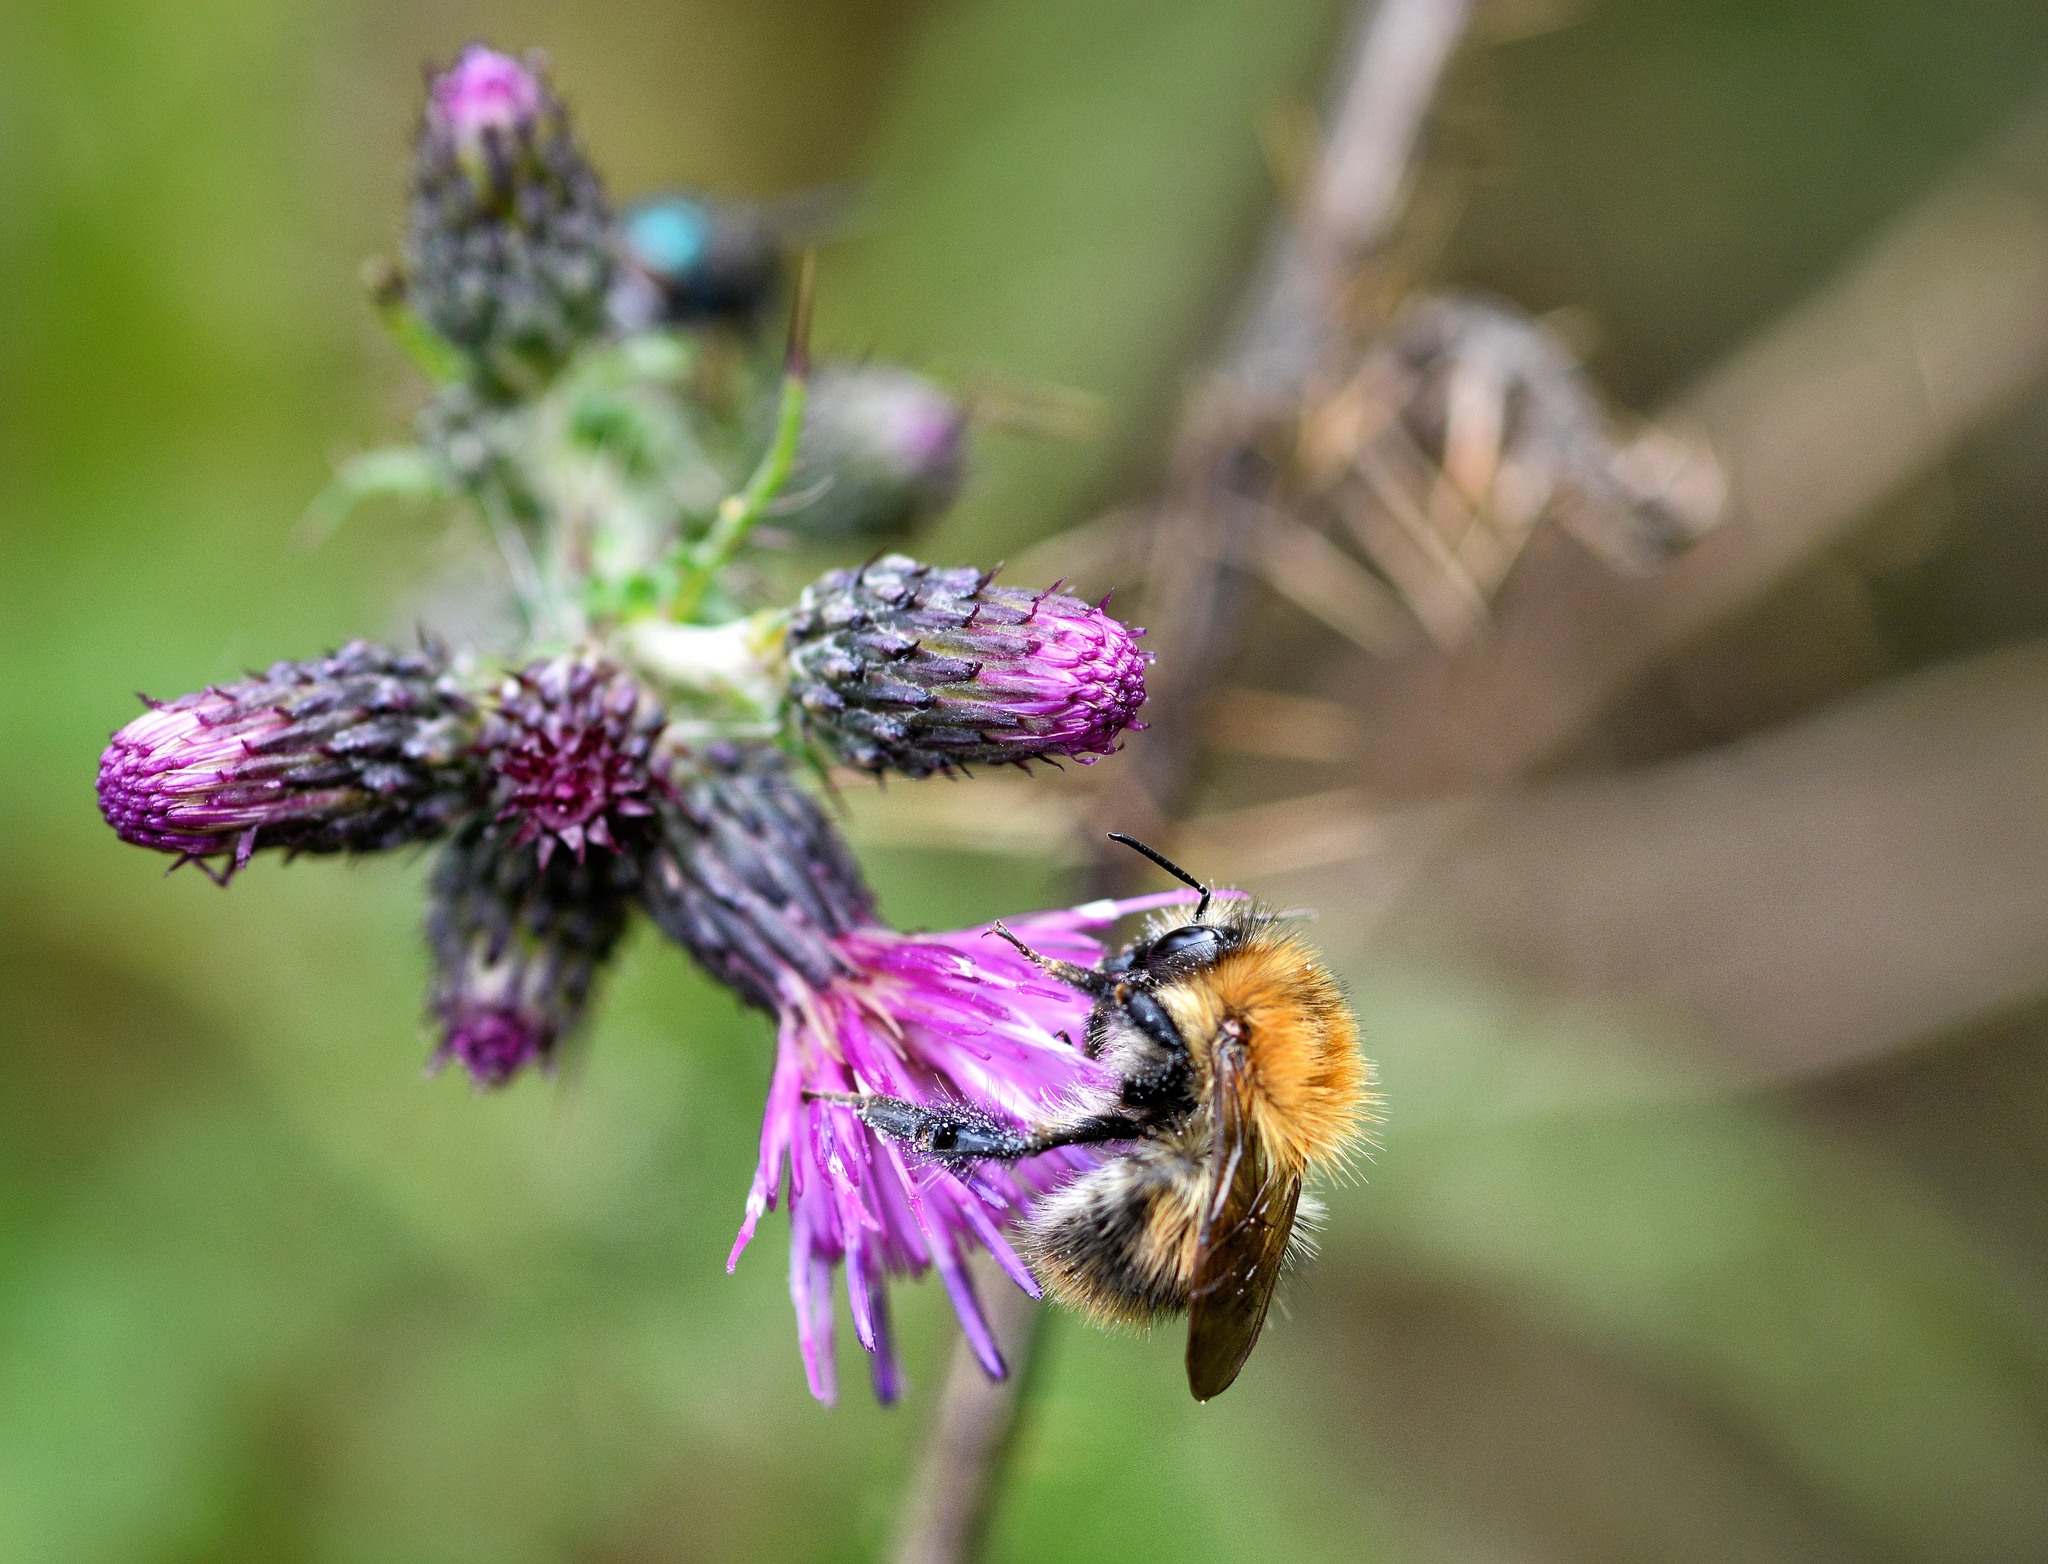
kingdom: Animalia
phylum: Arthropoda
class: Insecta
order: Hymenoptera
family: Apidae
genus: Bombus
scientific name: Bombus pascuorum
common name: Common carder bee
